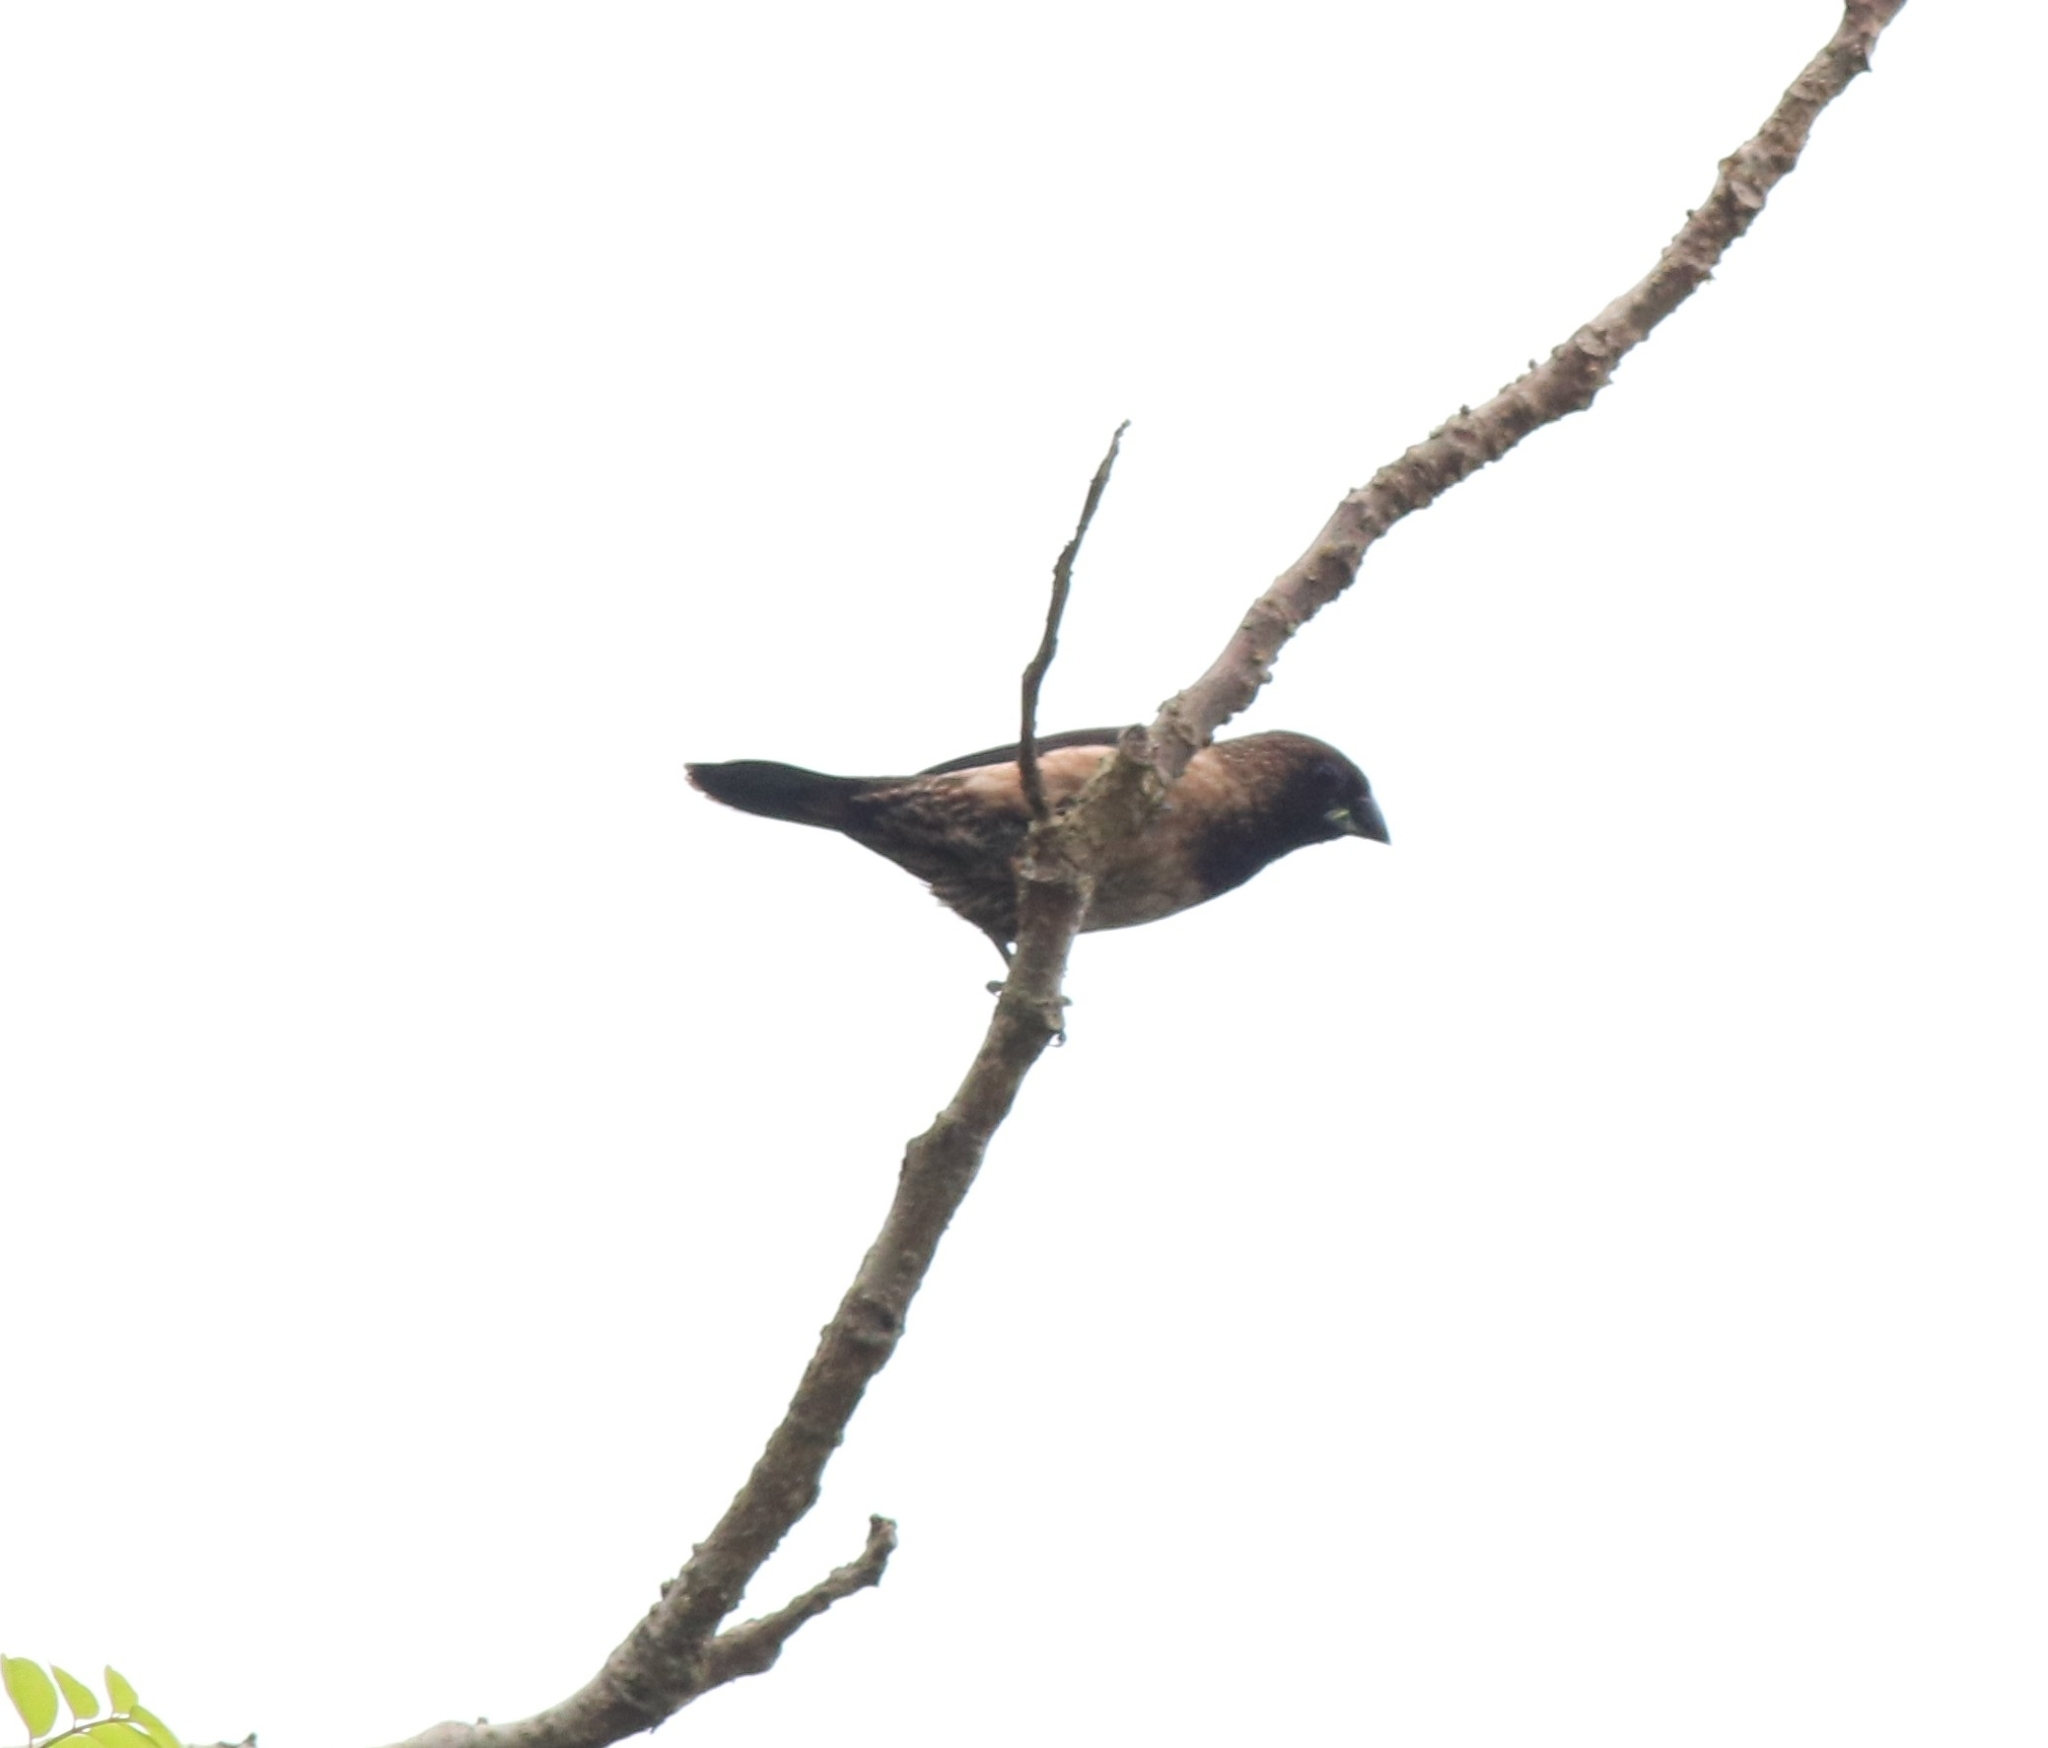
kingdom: Animalia
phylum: Chordata
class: Aves
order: Passeriformes
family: Estrildidae
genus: Lonchura
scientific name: Lonchura kelaarti
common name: Black-throated munia
